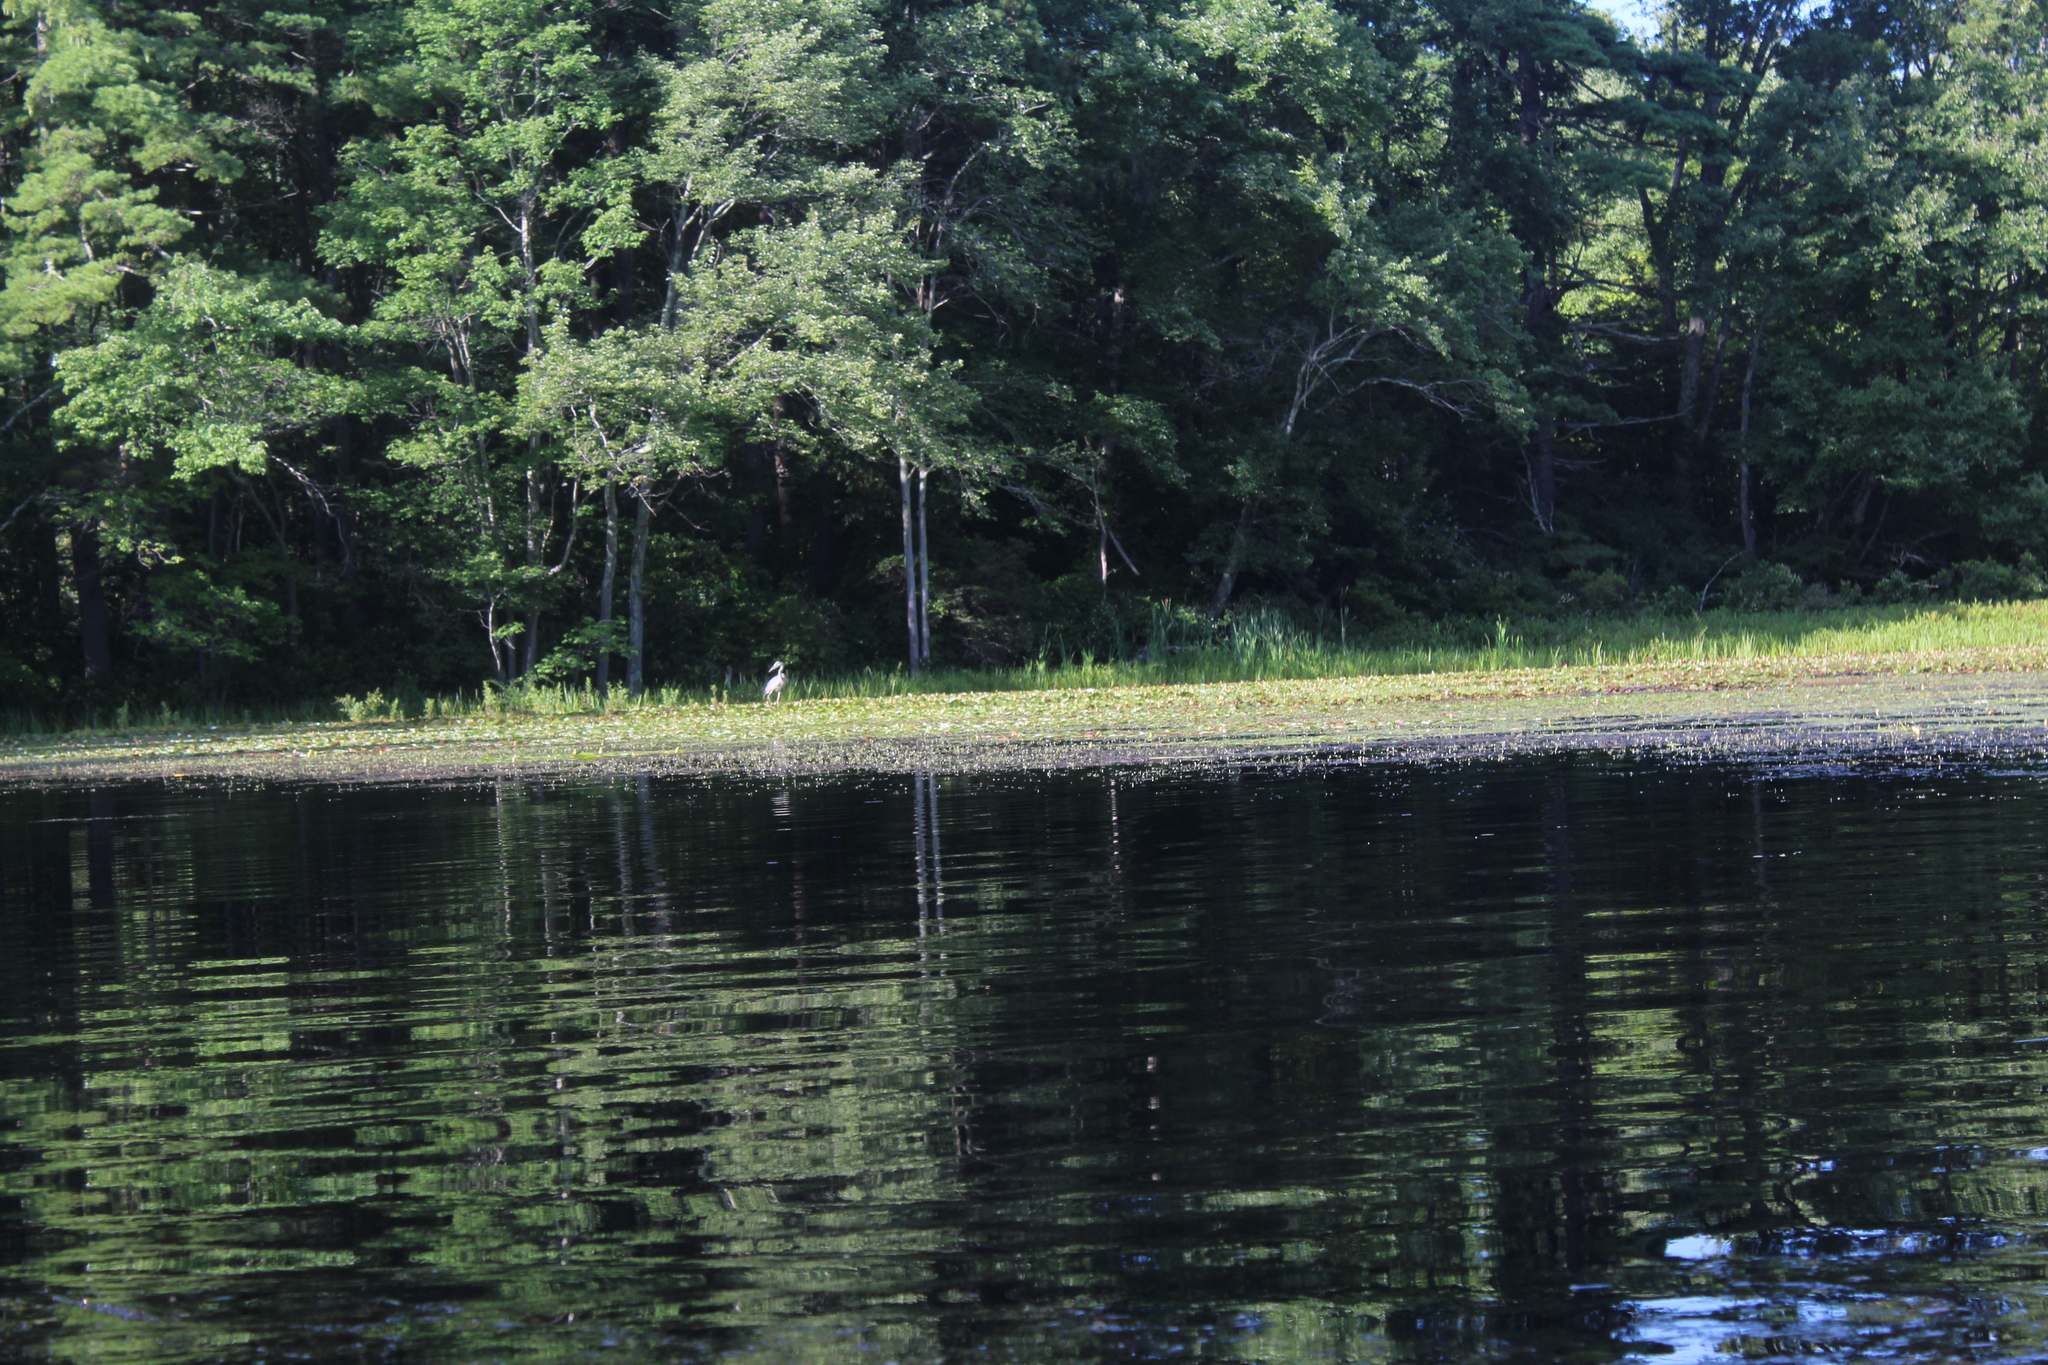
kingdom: Animalia
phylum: Chordata
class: Aves
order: Pelecaniformes
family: Ardeidae
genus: Ardea
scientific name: Ardea herodias
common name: Great blue heron
